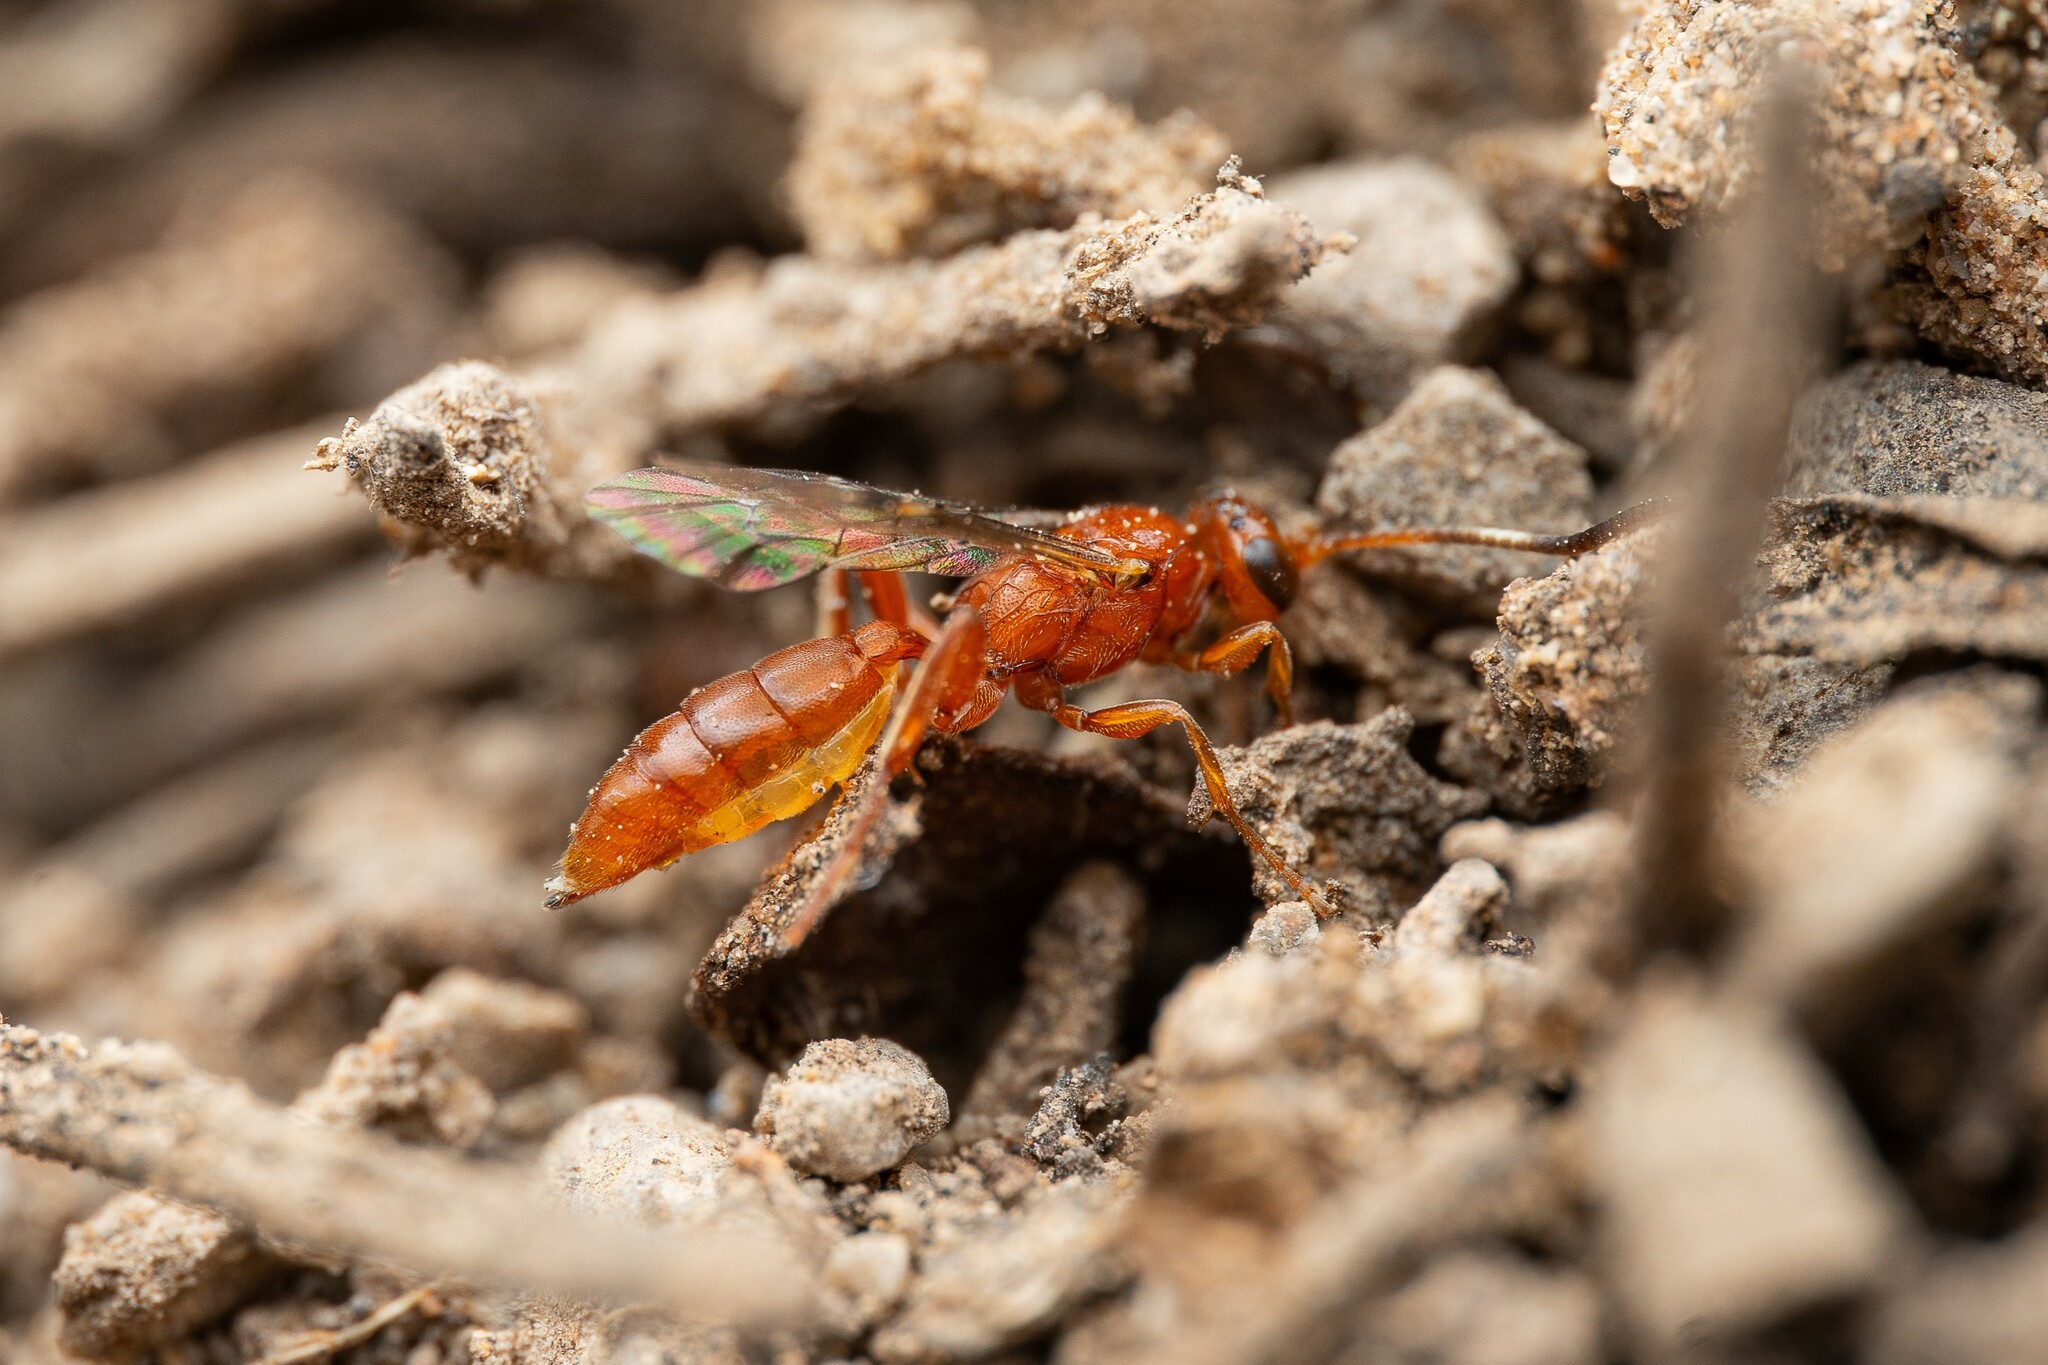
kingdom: Animalia
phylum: Arthropoda
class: Insecta
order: Hymenoptera
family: Ichneumonidae
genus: Barichneumon
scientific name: Barichneumon
